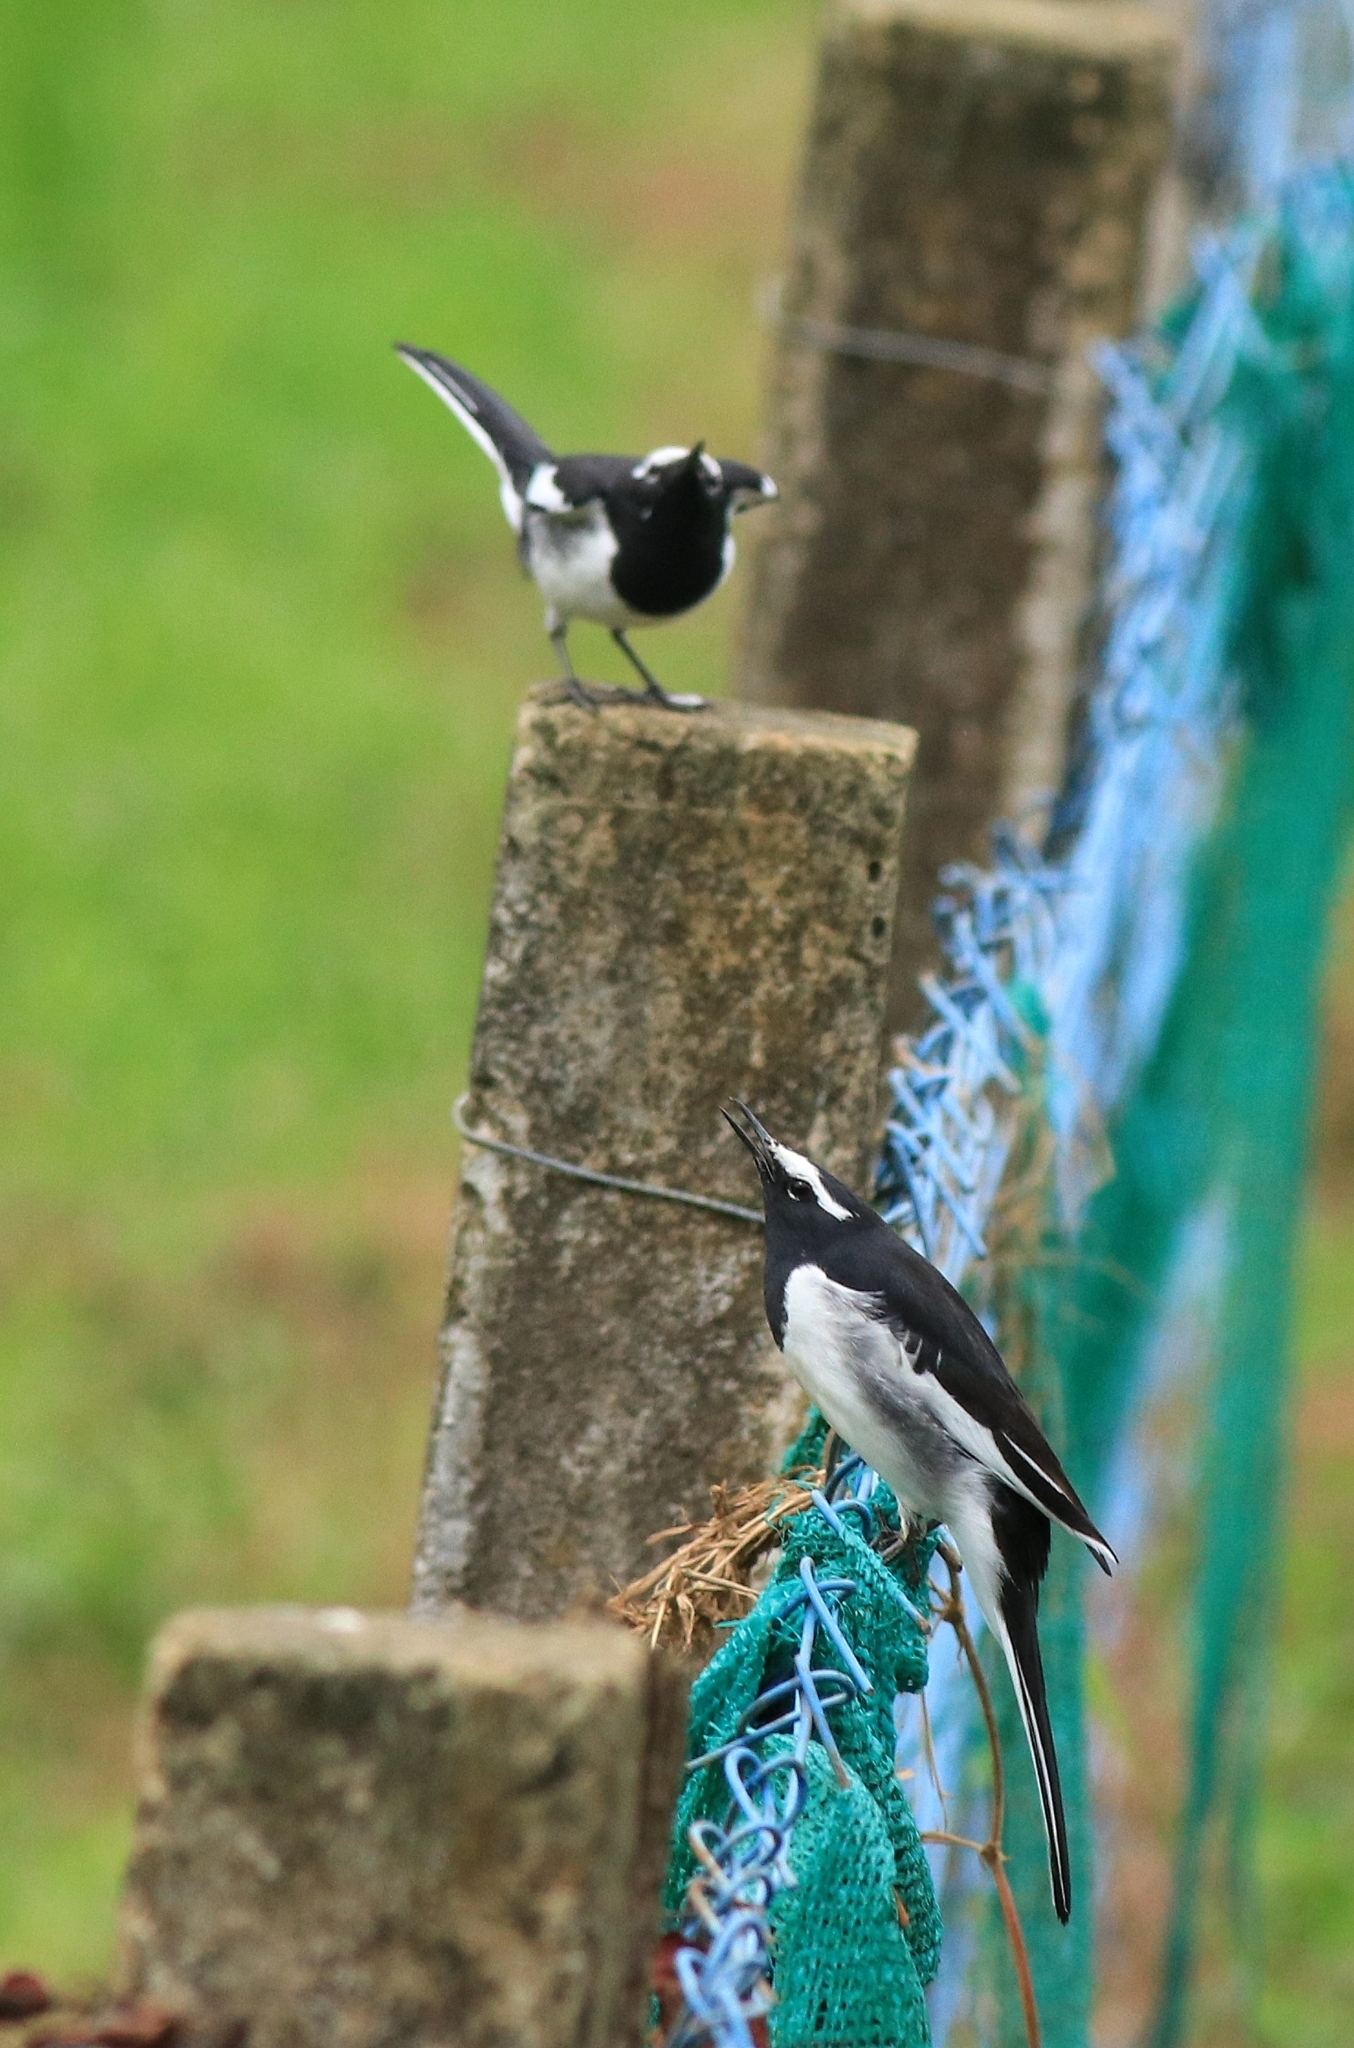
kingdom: Animalia
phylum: Chordata
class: Aves
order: Passeriformes
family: Motacillidae
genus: Motacilla
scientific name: Motacilla maderaspatensis
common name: White-browed wagtail
